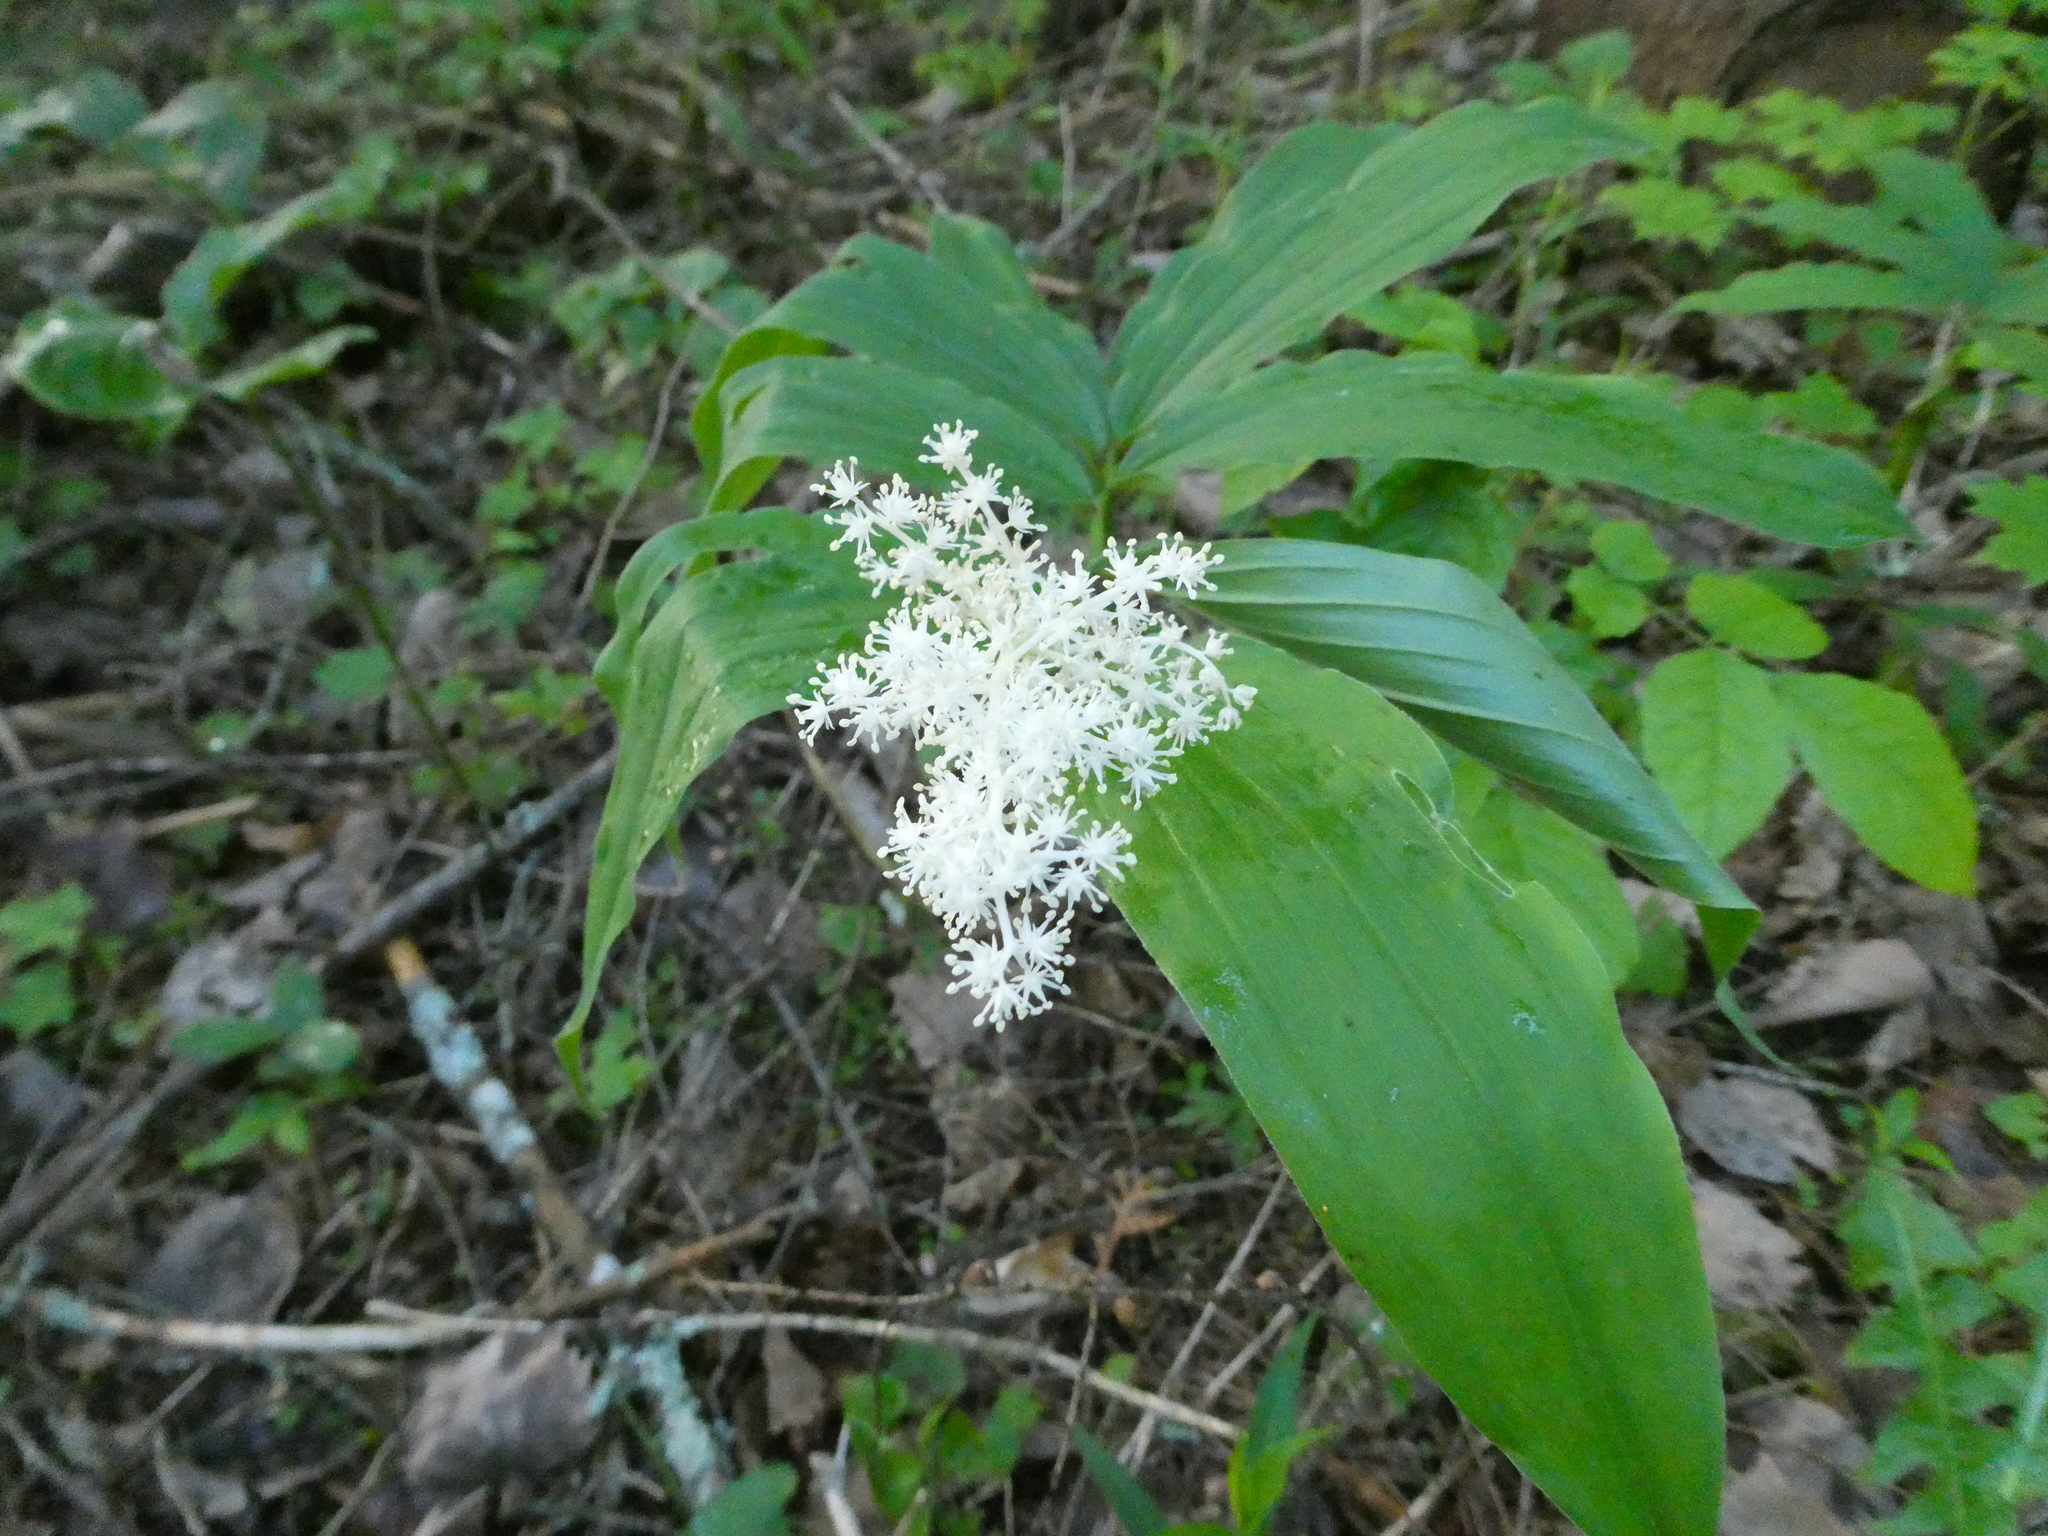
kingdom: Plantae
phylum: Tracheophyta
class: Liliopsida
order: Asparagales
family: Asparagaceae
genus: Maianthemum
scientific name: Maianthemum racemosum
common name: False spikenard
